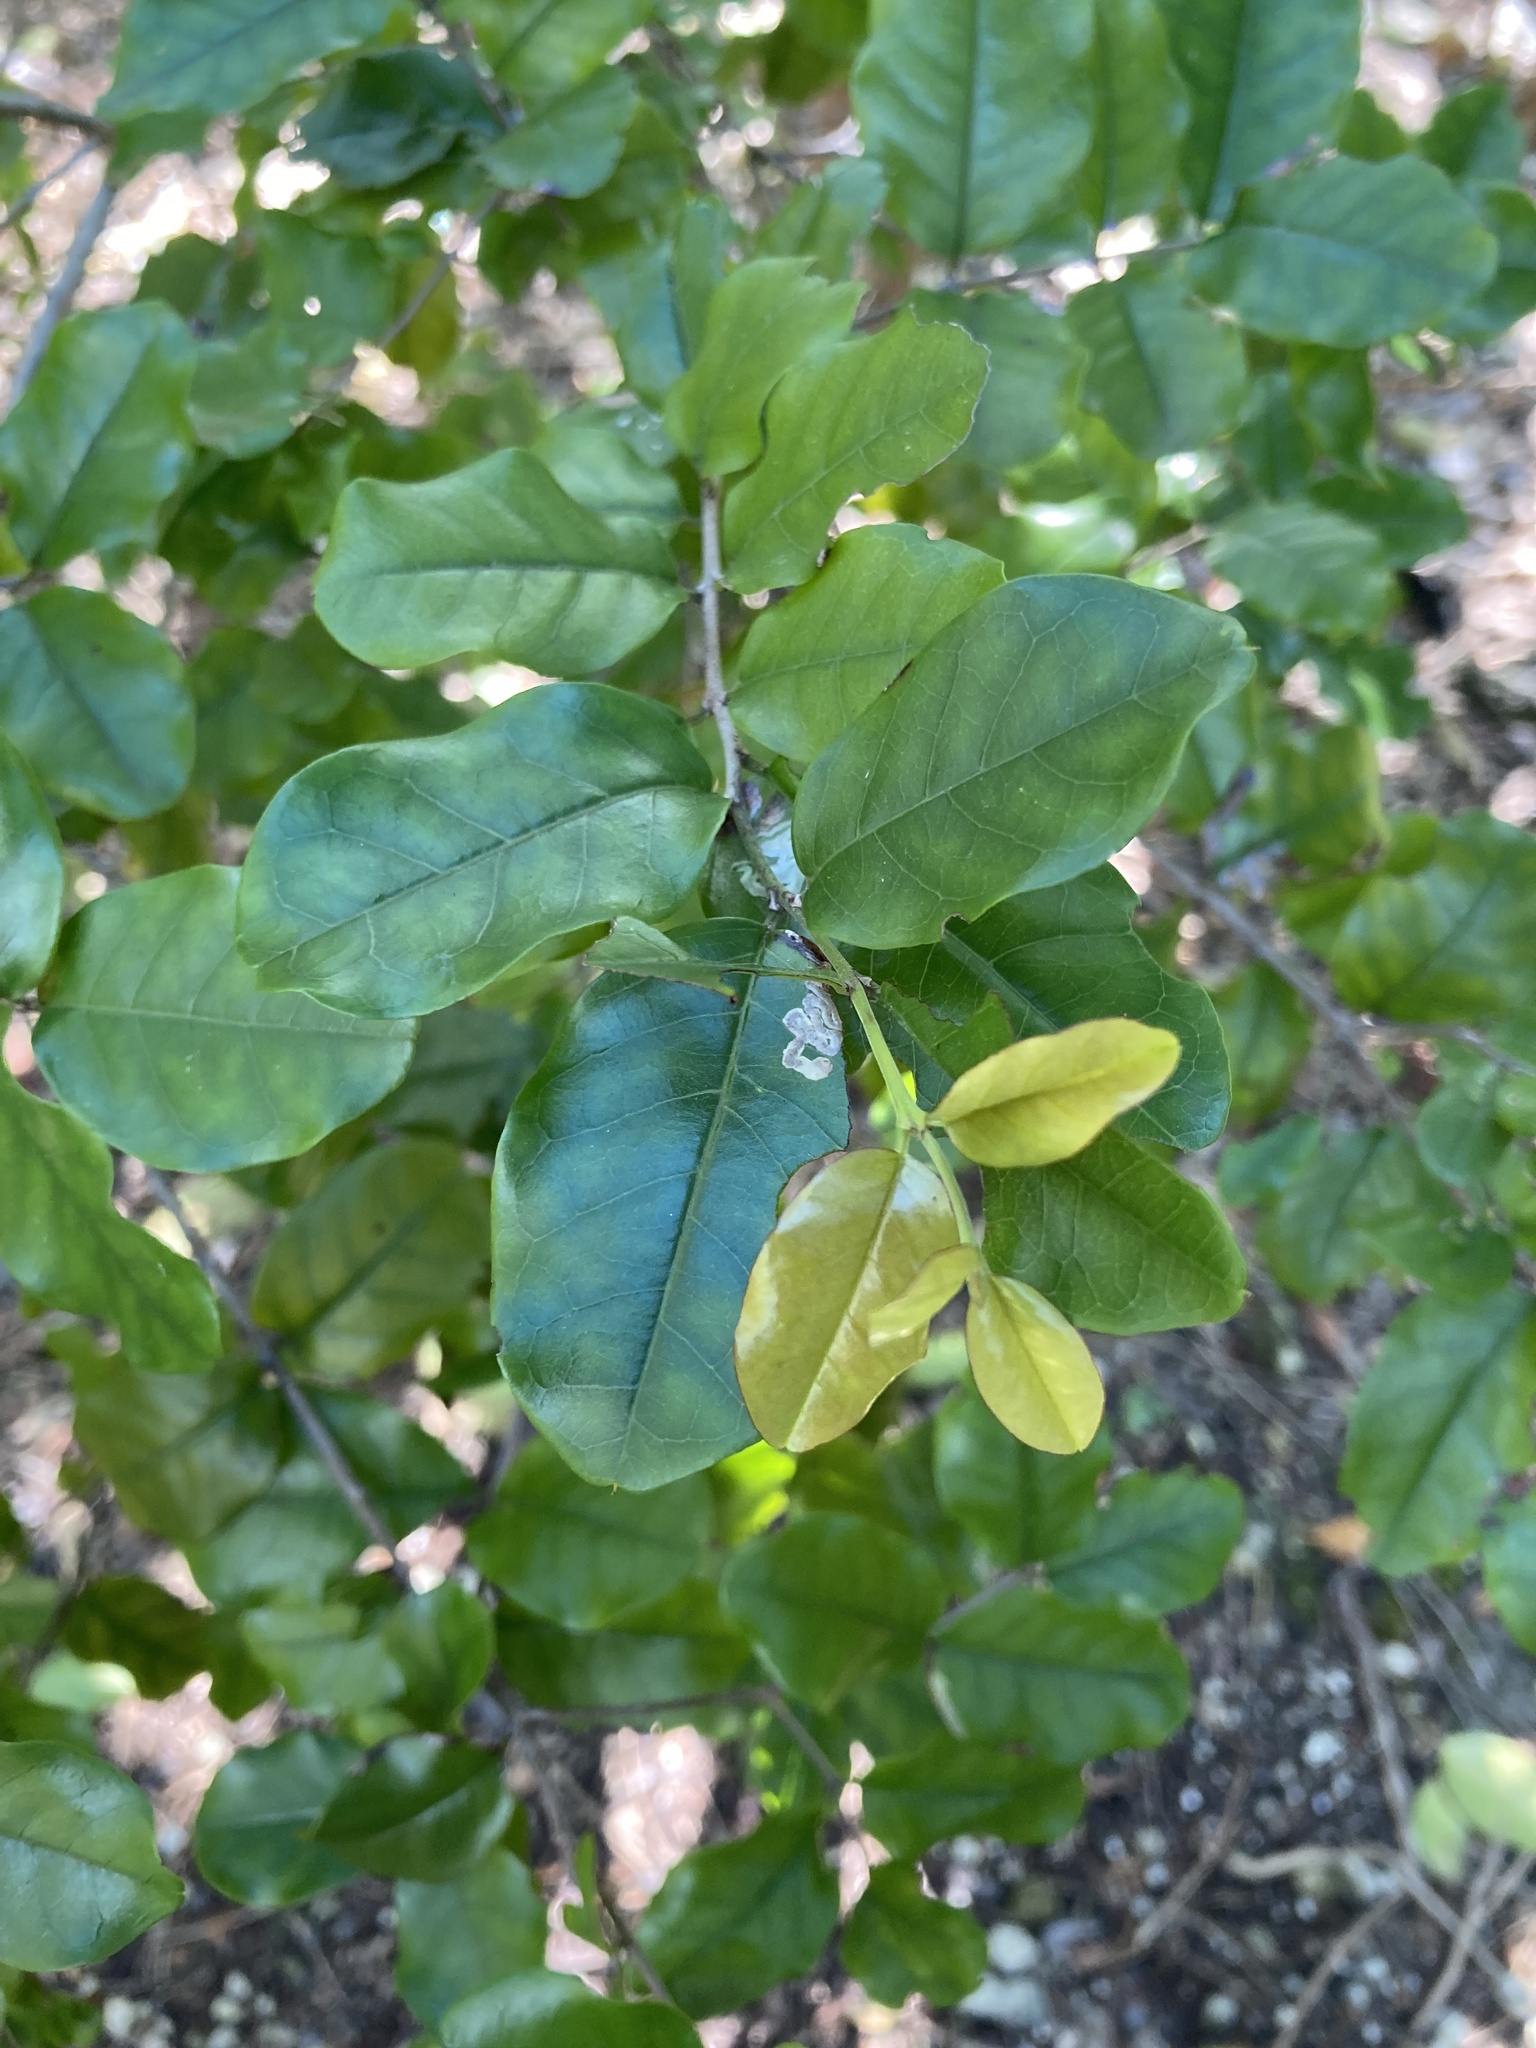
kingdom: Plantae
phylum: Tracheophyta
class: Magnoliopsida
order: Rosales
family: Rhamnaceae
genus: Krugiodendron
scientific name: Krugiodendron ferreum
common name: Iron wood
